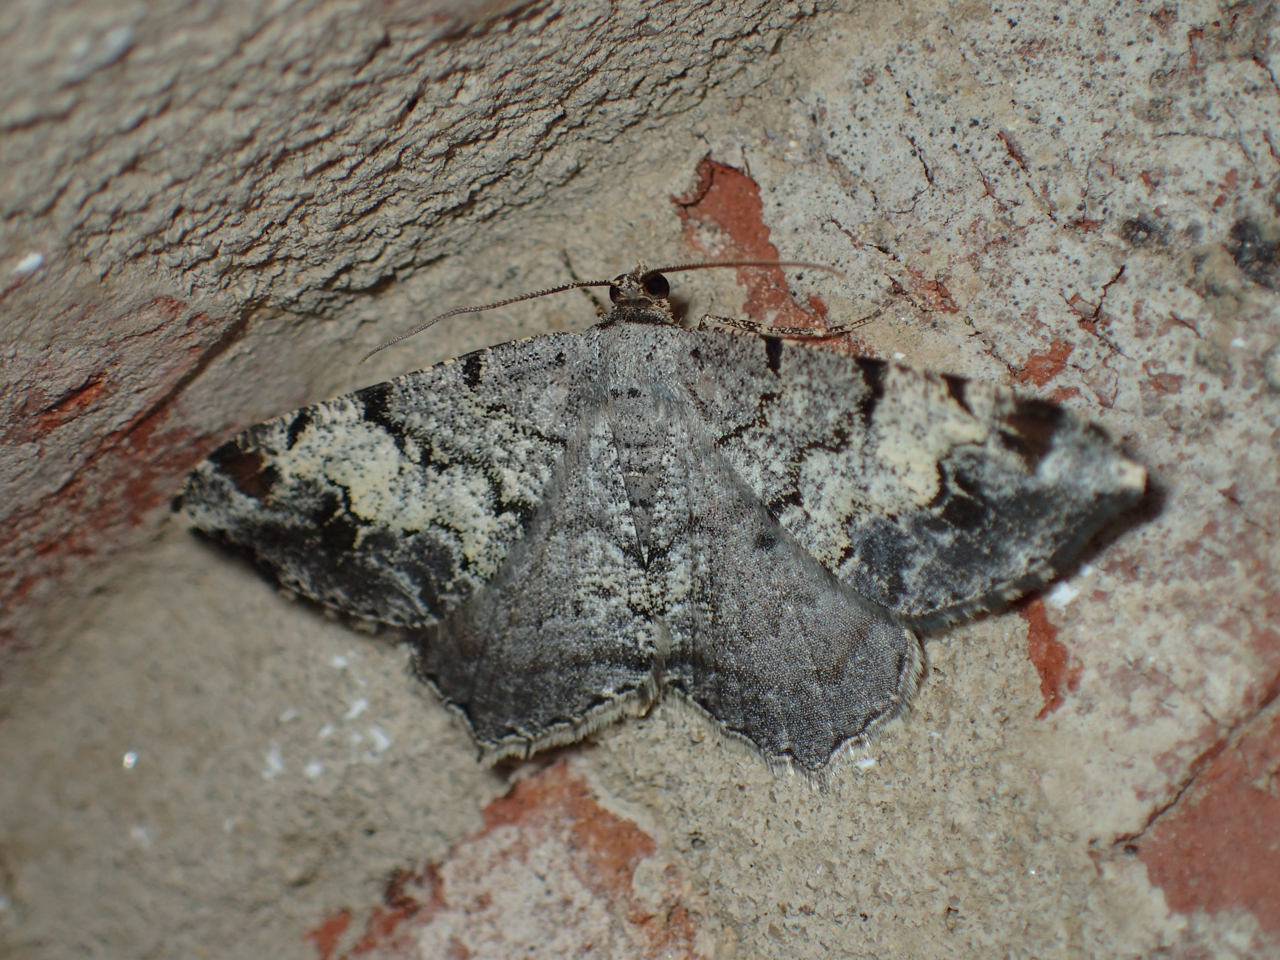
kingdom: Animalia
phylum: Arthropoda
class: Insecta
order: Lepidoptera
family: Geometridae
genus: Macaria
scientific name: Macaria granitata
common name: Granite moth
